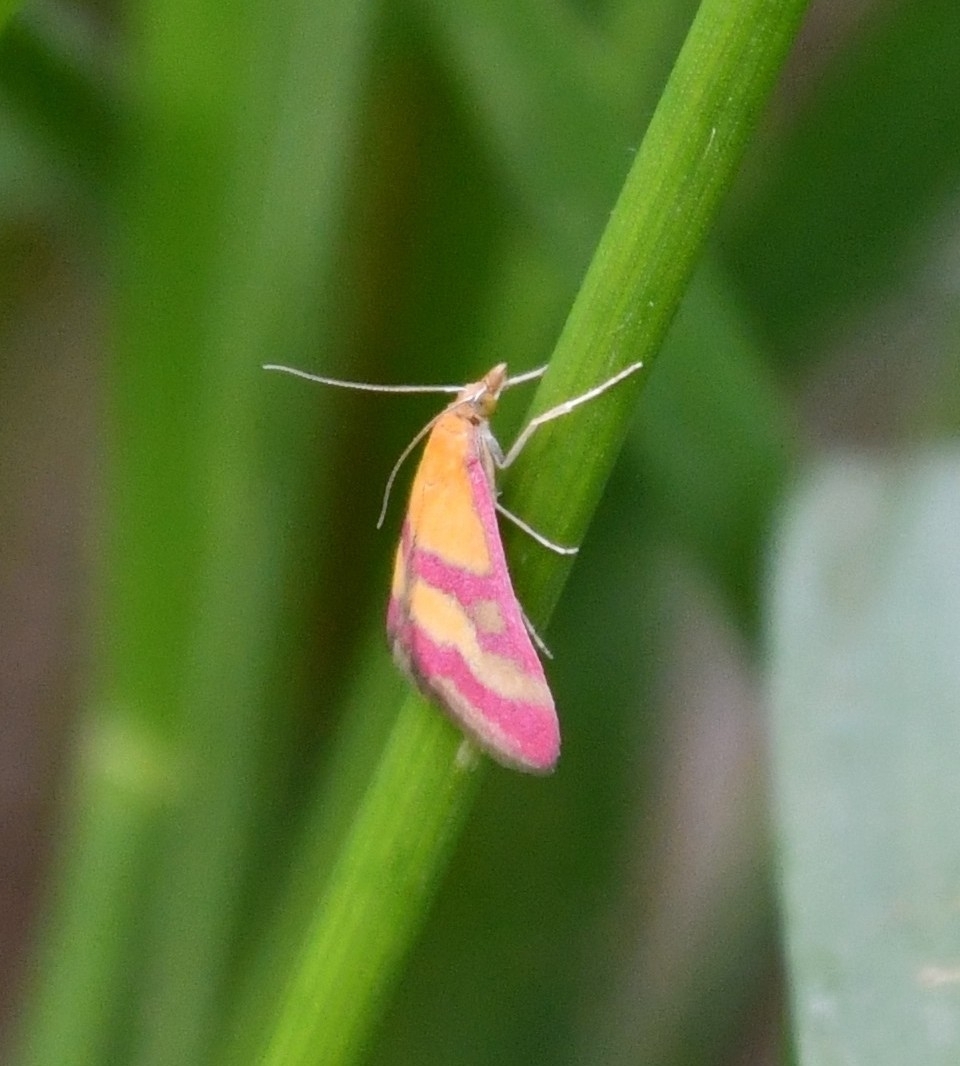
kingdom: Animalia
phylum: Arthropoda
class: Insecta
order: Lepidoptera
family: Crambidae
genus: Pyrausta
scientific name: Pyrausta sanguinalis
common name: Scarce crimson and gold
